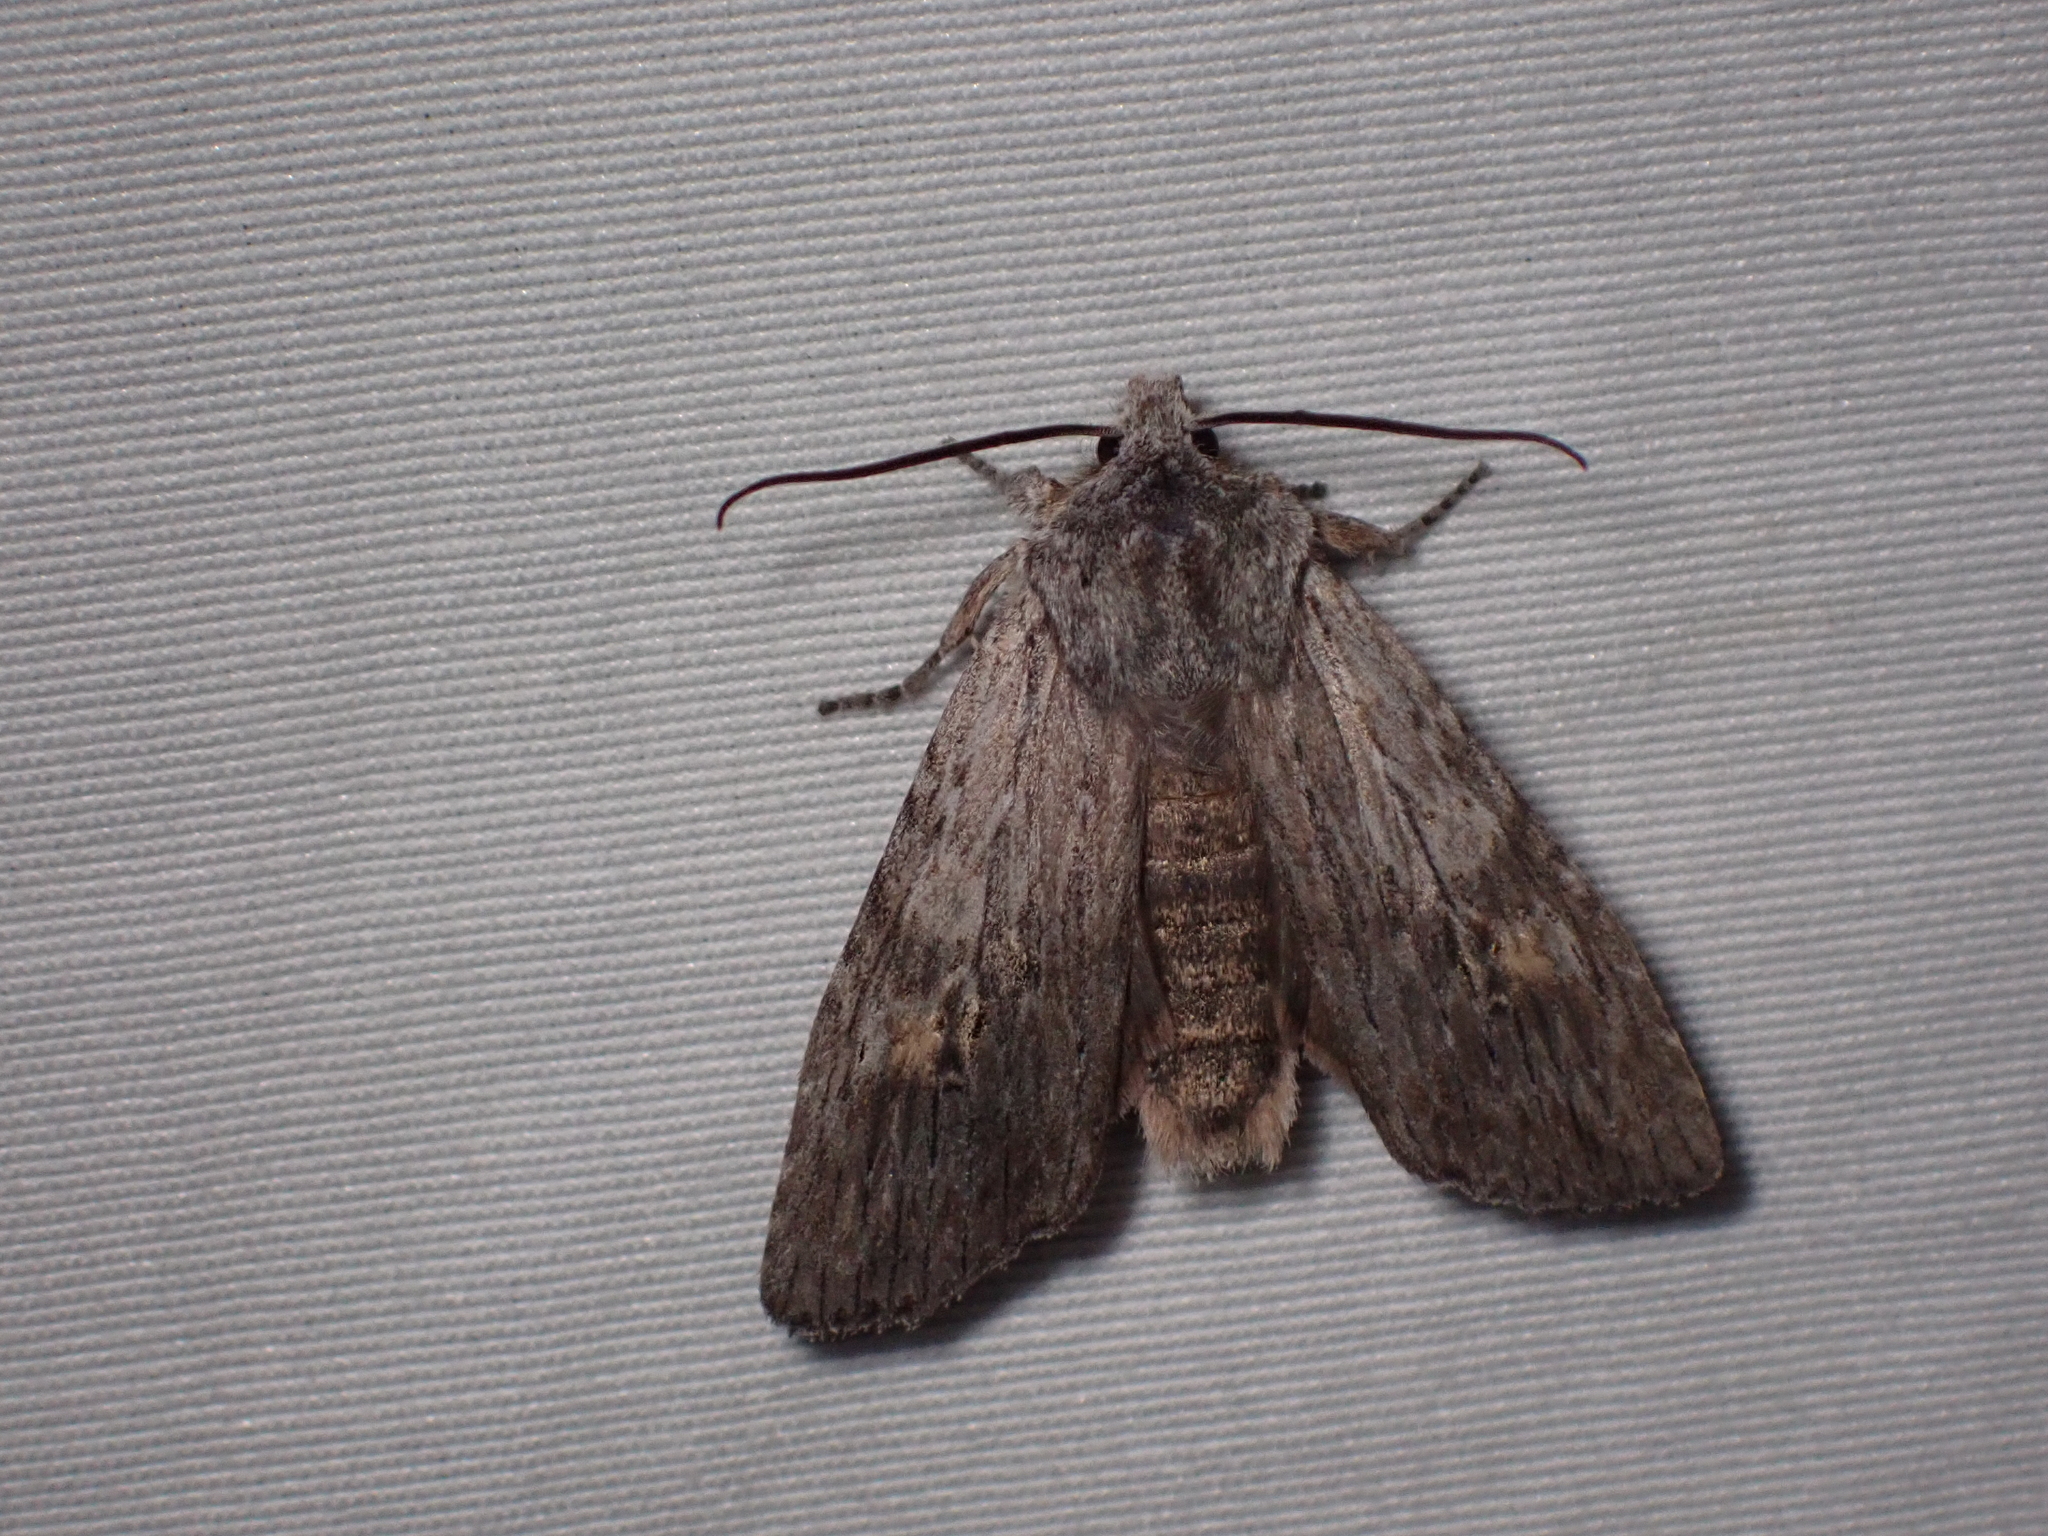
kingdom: Animalia
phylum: Arthropoda
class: Insecta
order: Lepidoptera
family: Noctuidae
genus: Lithophane
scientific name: Lithophane contenta
